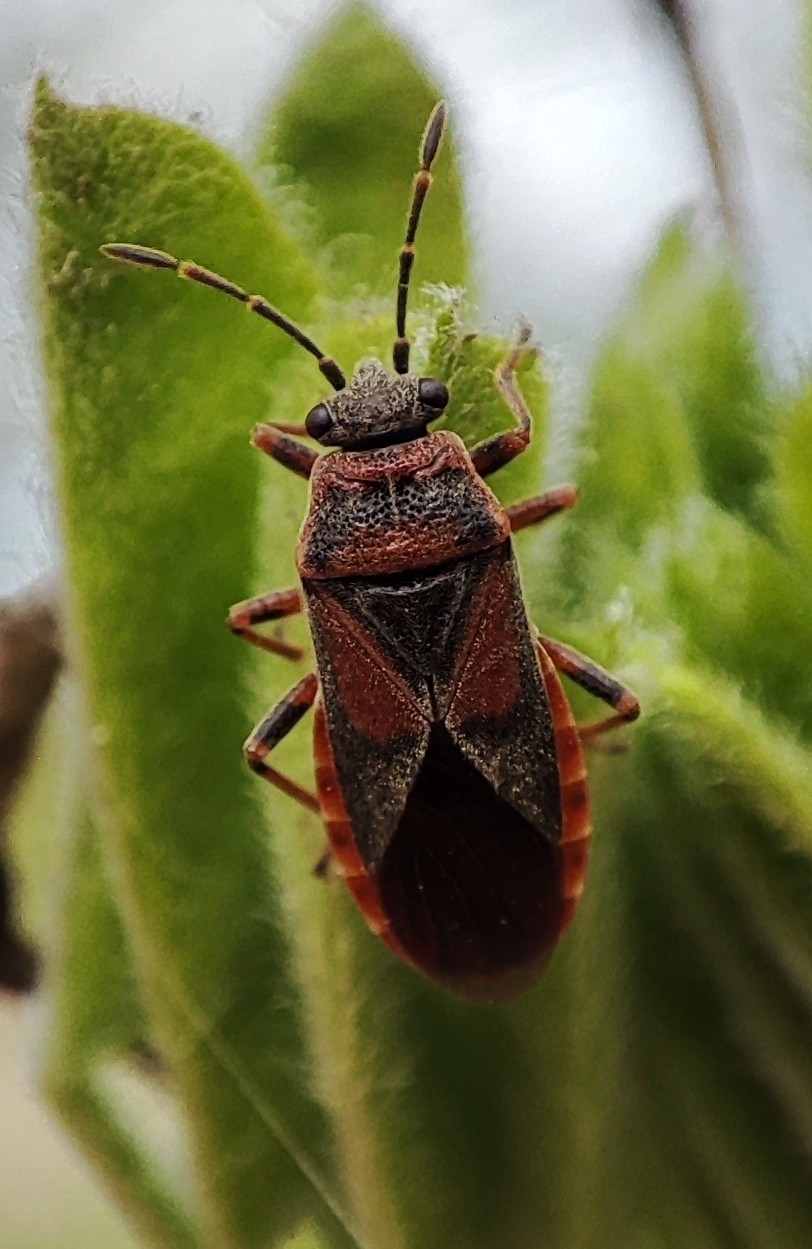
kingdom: Animalia
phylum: Arthropoda
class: Insecta
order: Hemiptera
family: Lygaeidae
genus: Arocatus
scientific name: Arocatus melanocephalus
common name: Lygaeid bug
